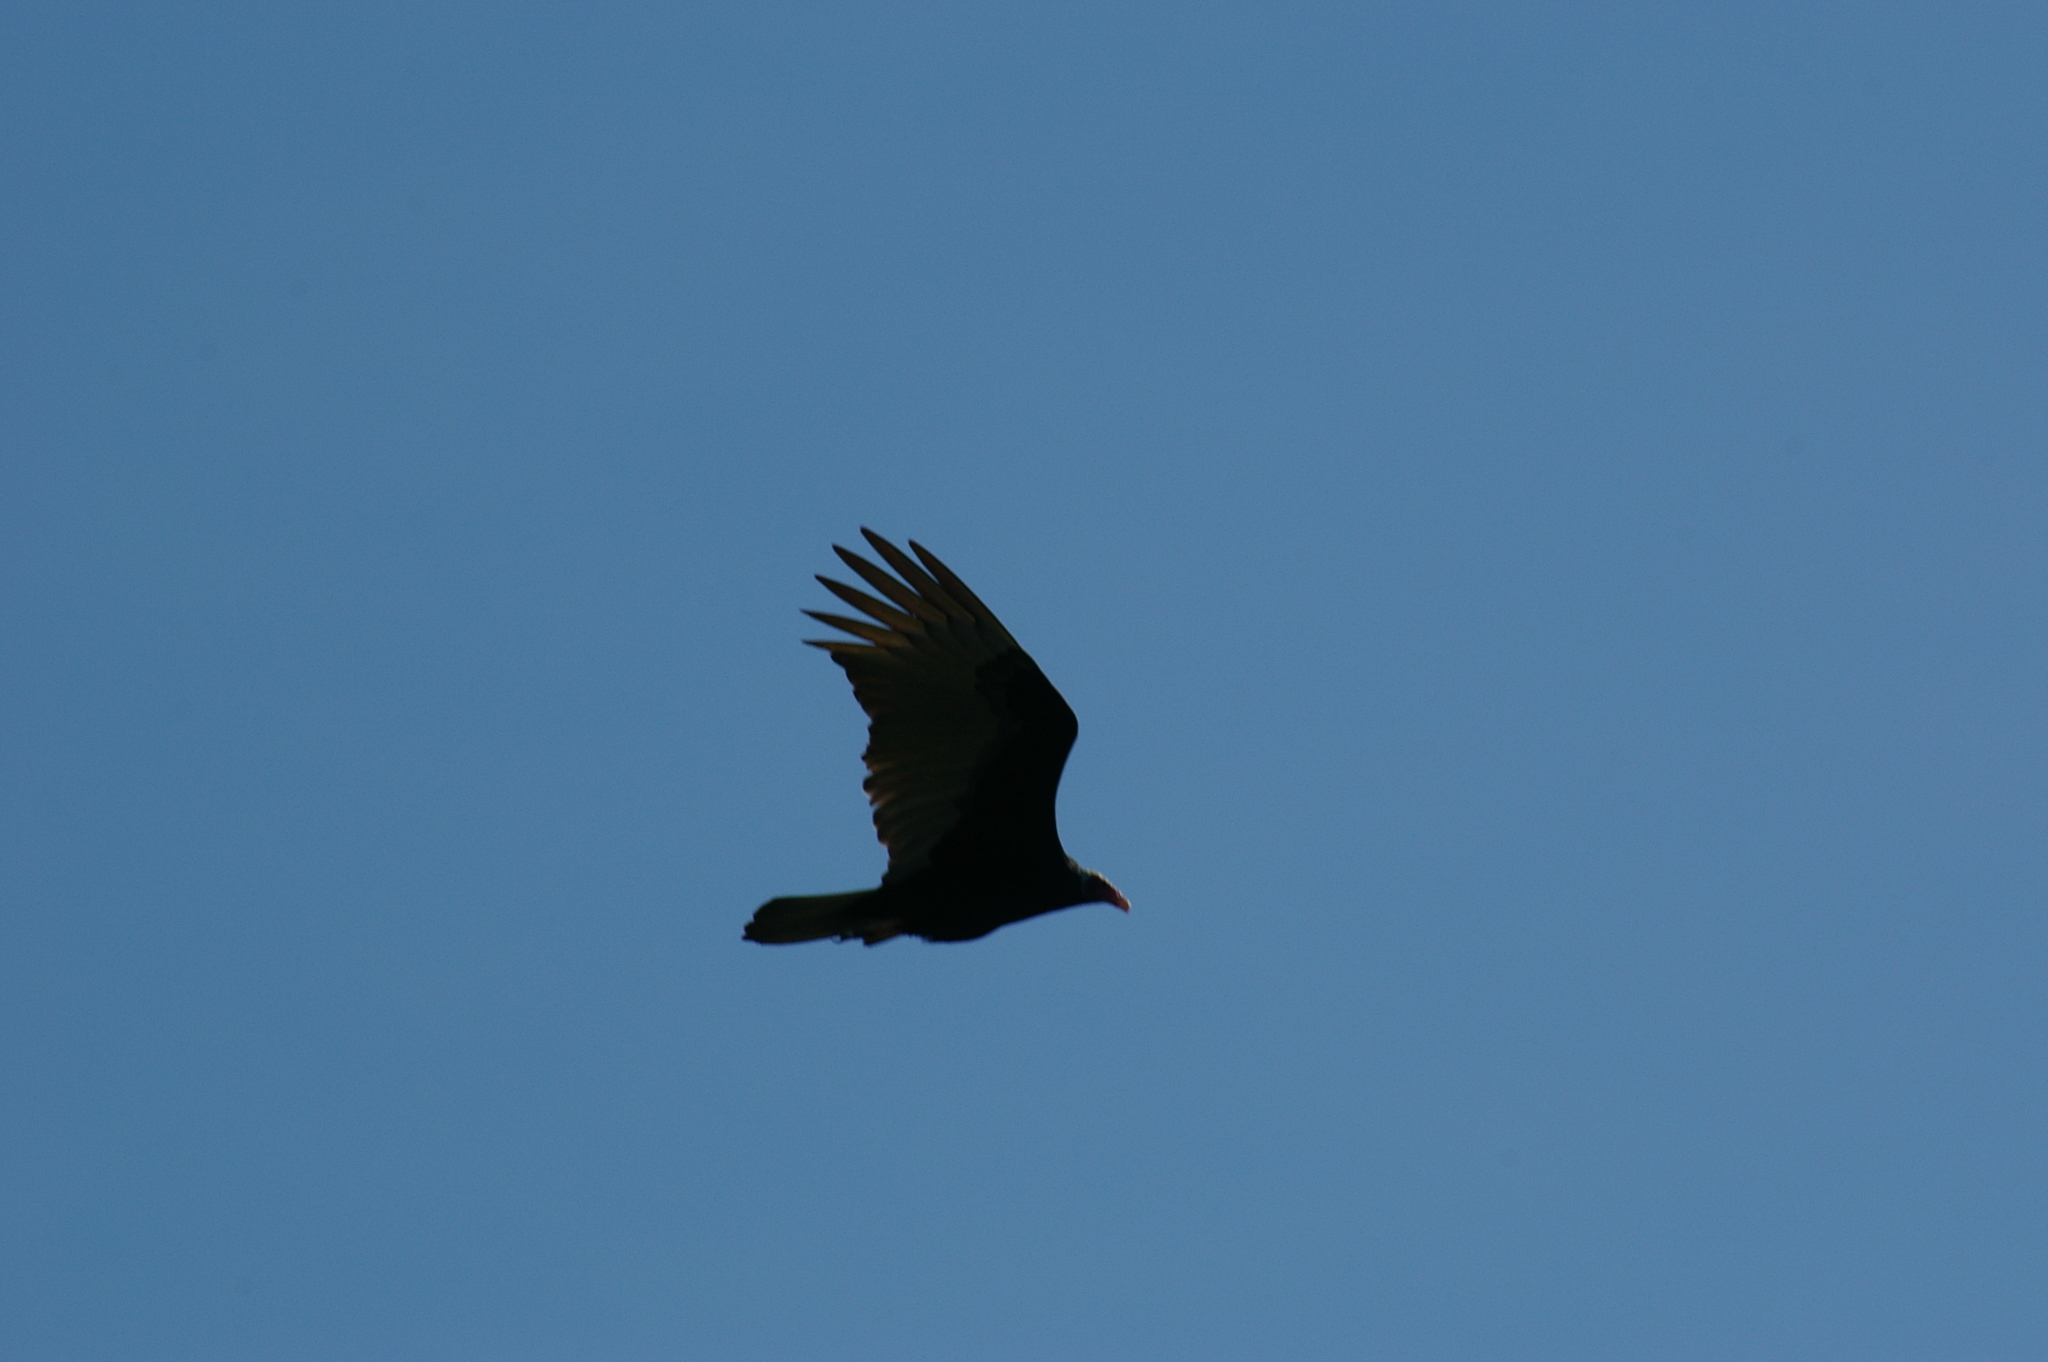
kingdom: Animalia
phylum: Chordata
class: Aves
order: Accipitriformes
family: Cathartidae
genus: Cathartes
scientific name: Cathartes aura
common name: Turkey vulture
